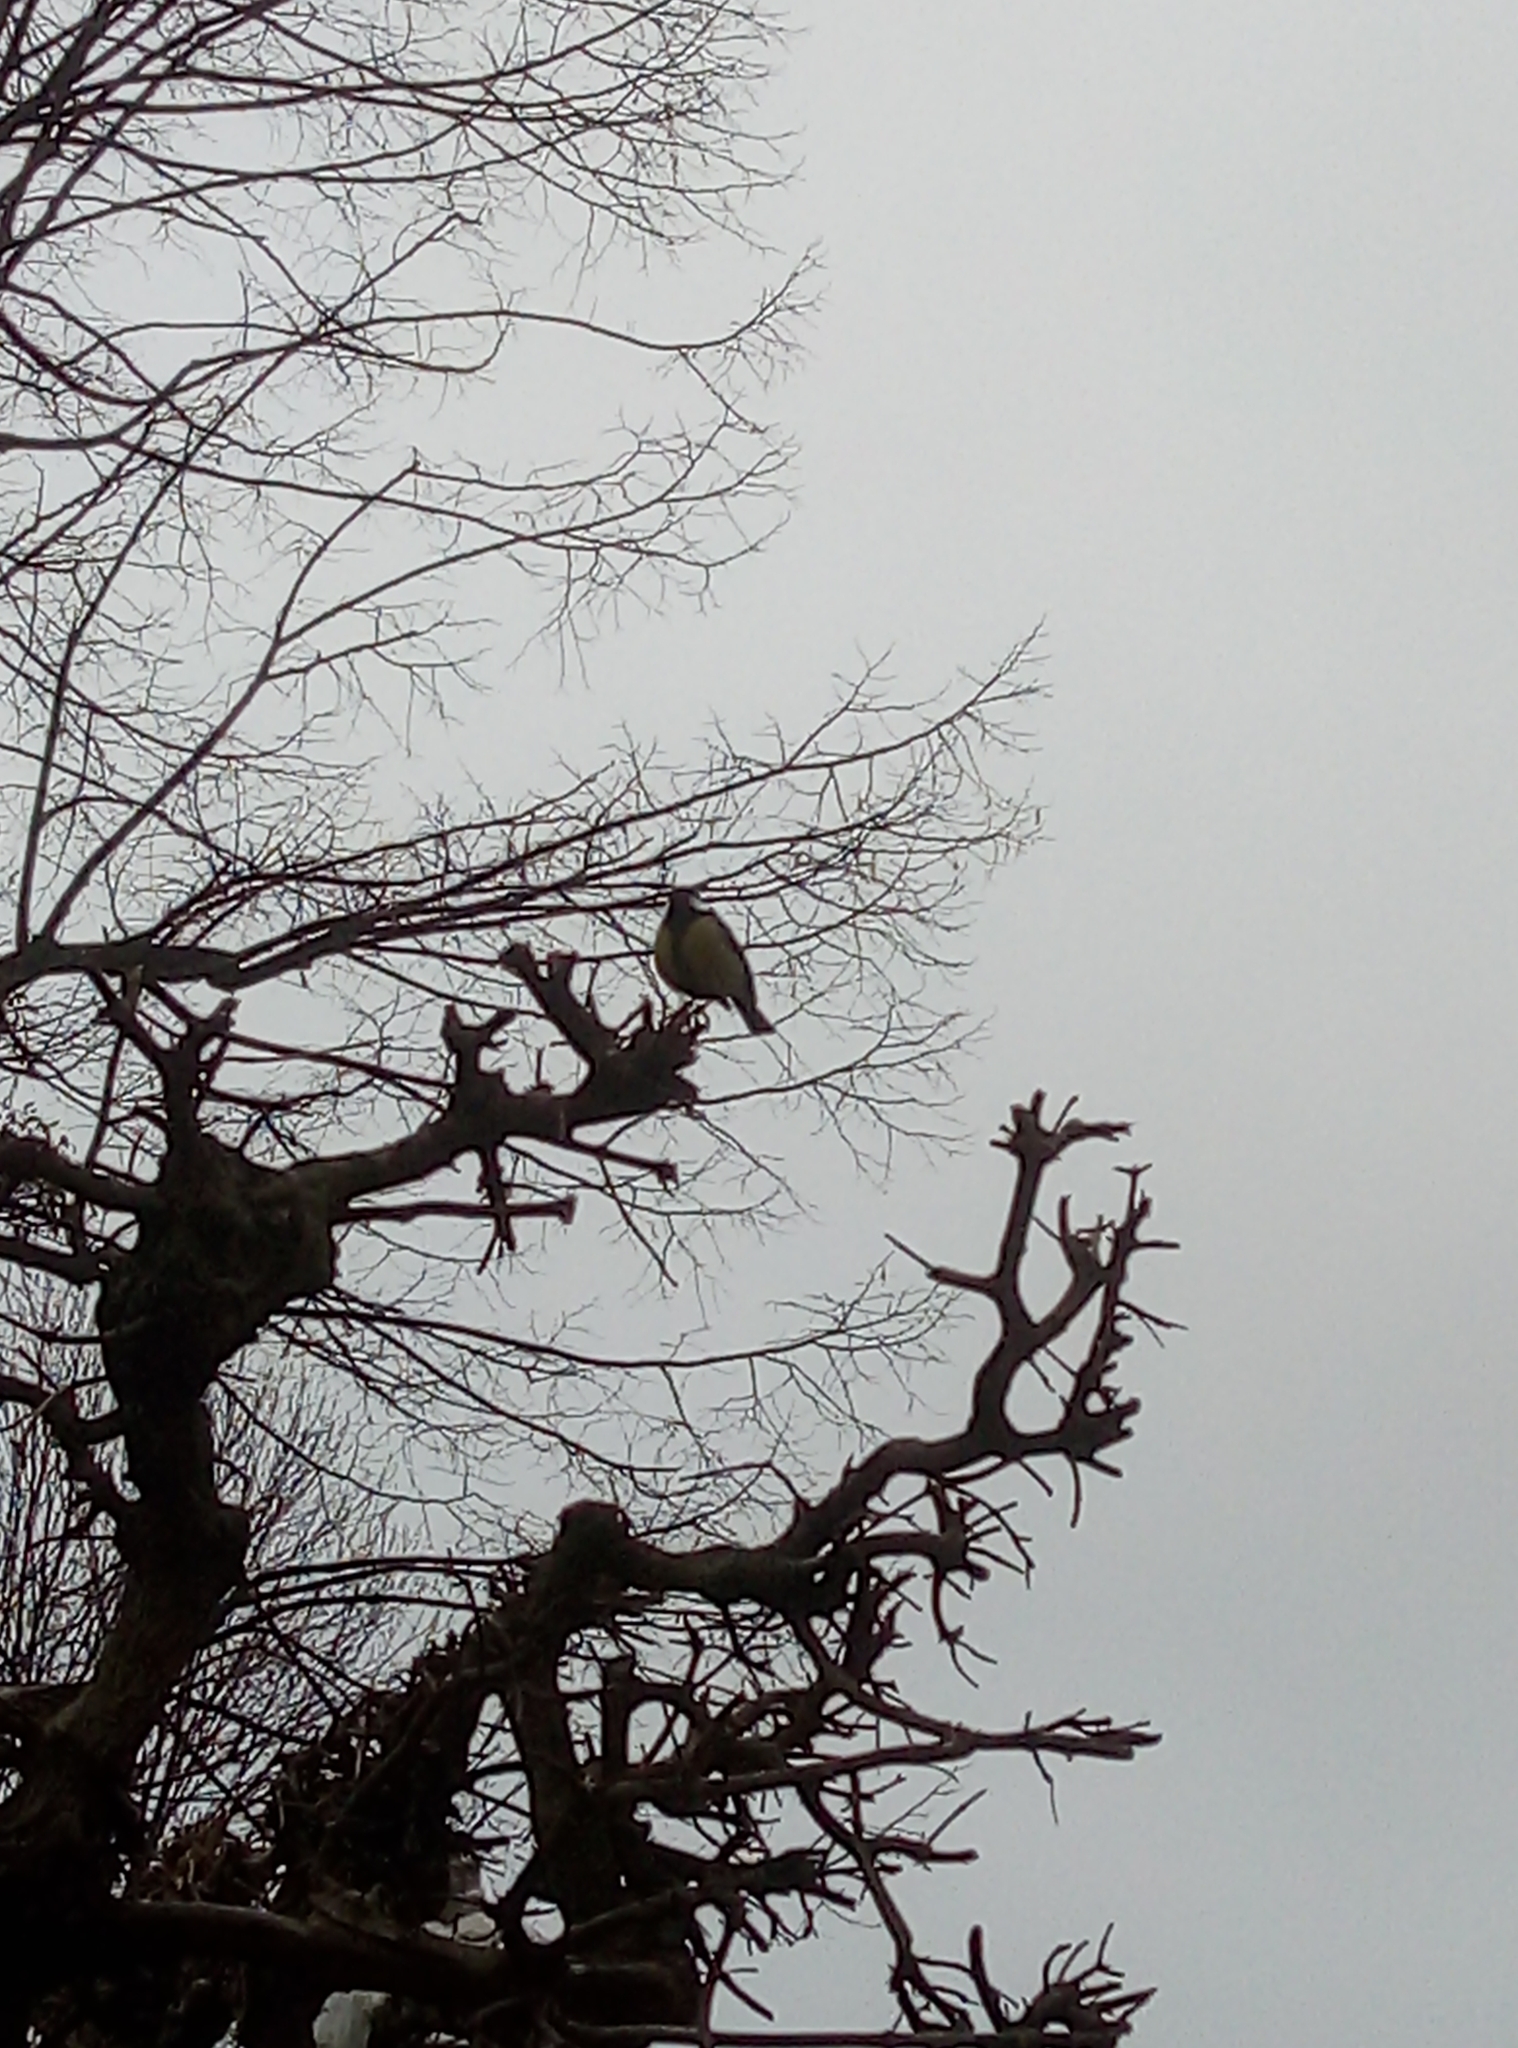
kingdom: Animalia
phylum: Chordata
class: Aves
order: Passeriformes
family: Paridae
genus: Parus
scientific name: Parus major
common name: Great tit
